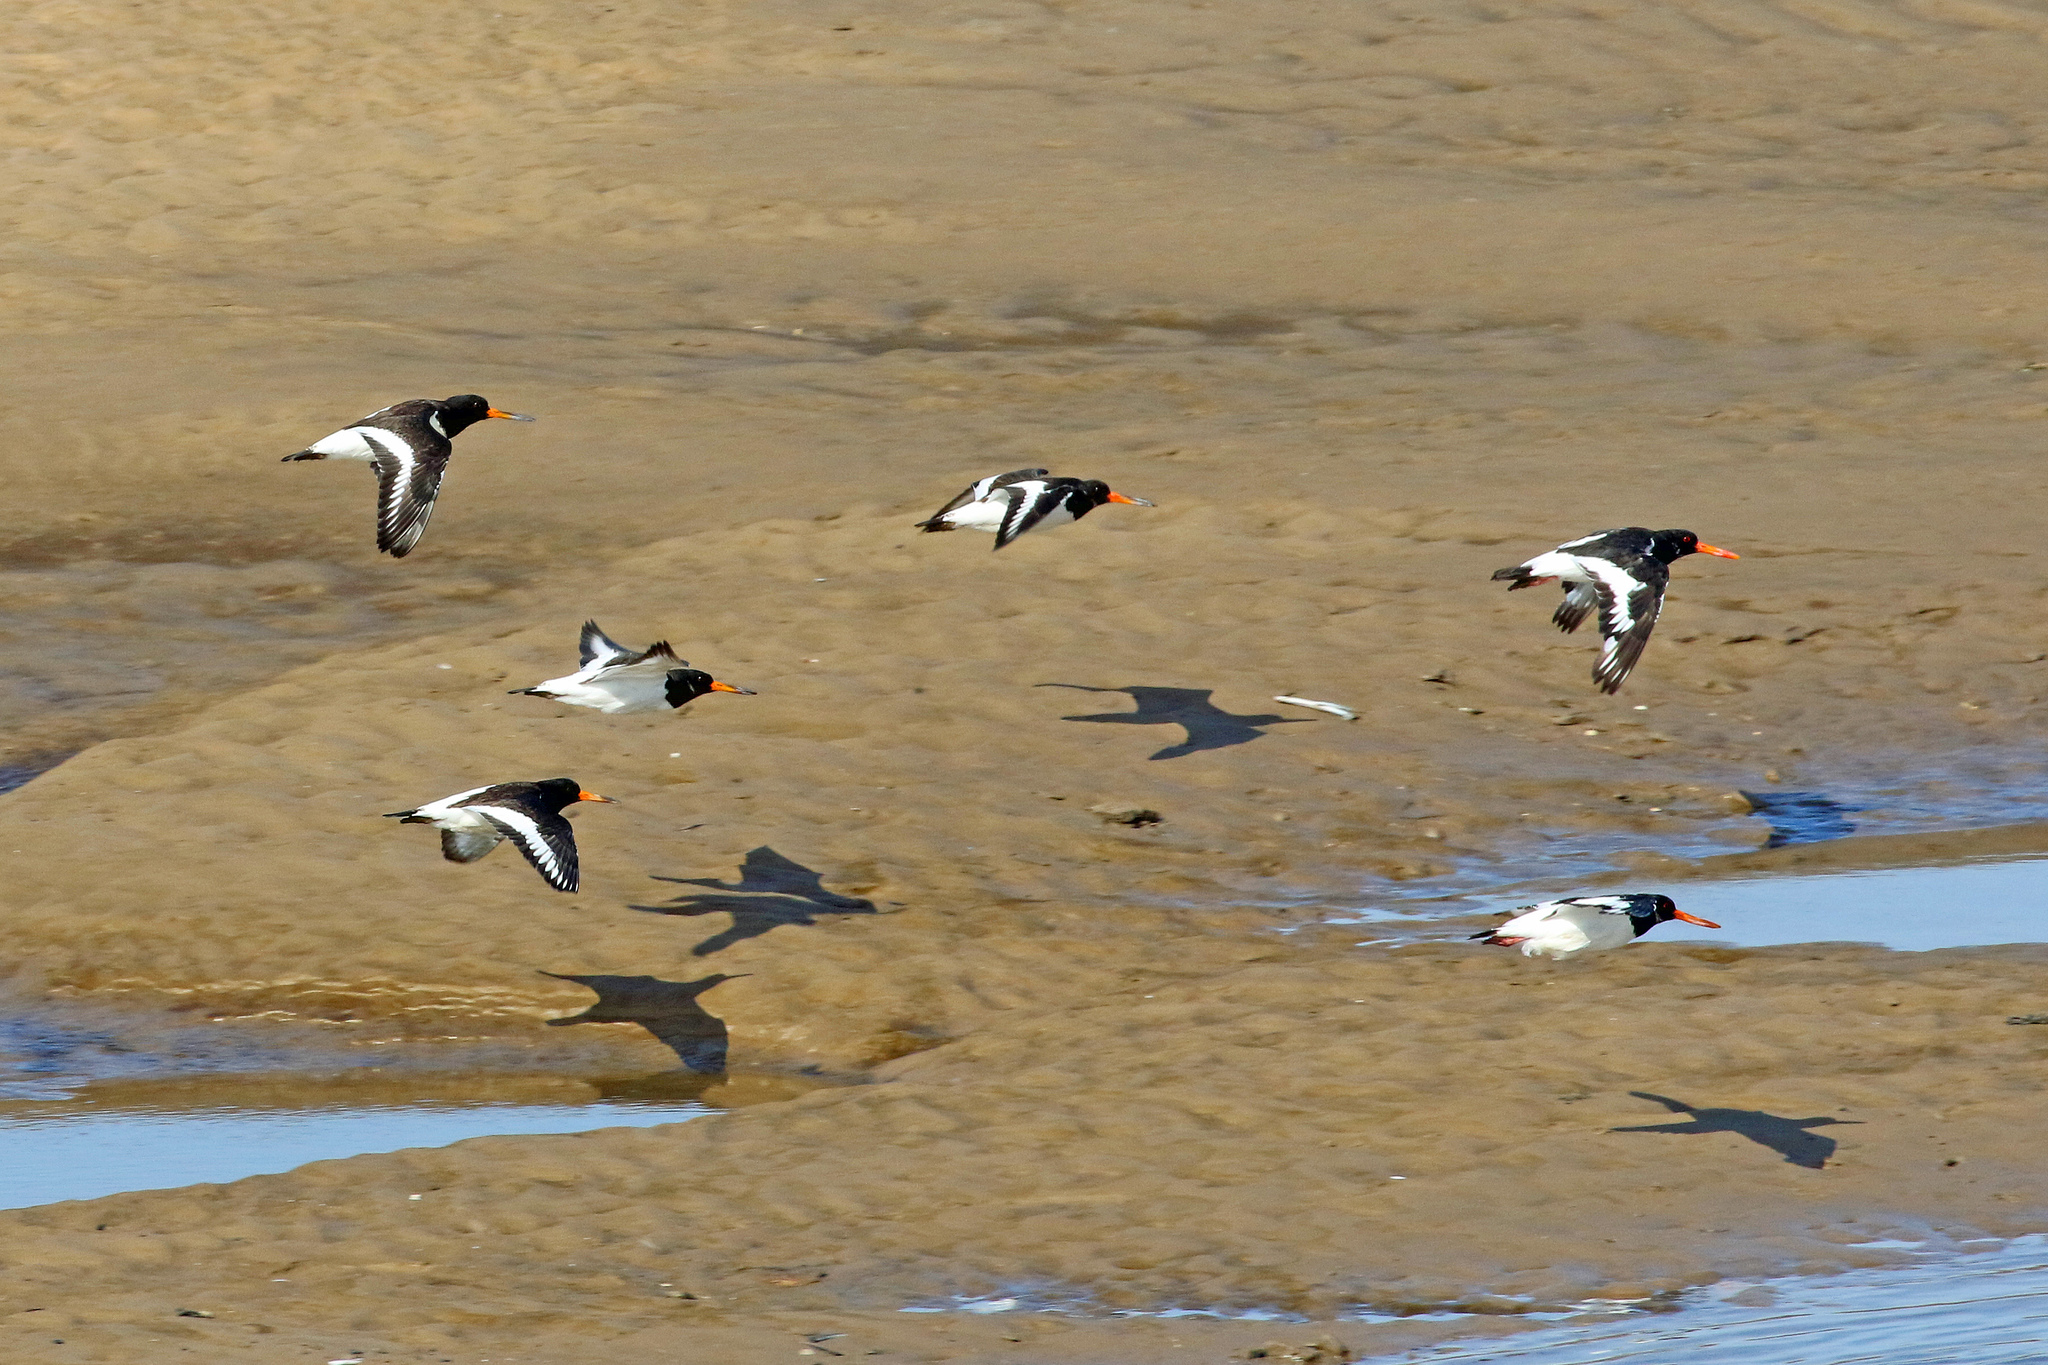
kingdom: Animalia
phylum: Chordata
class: Aves
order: Charadriiformes
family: Haematopodidae
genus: Haematopus
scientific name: Haematopus ostralegus
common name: Eurasian oystercatcher
